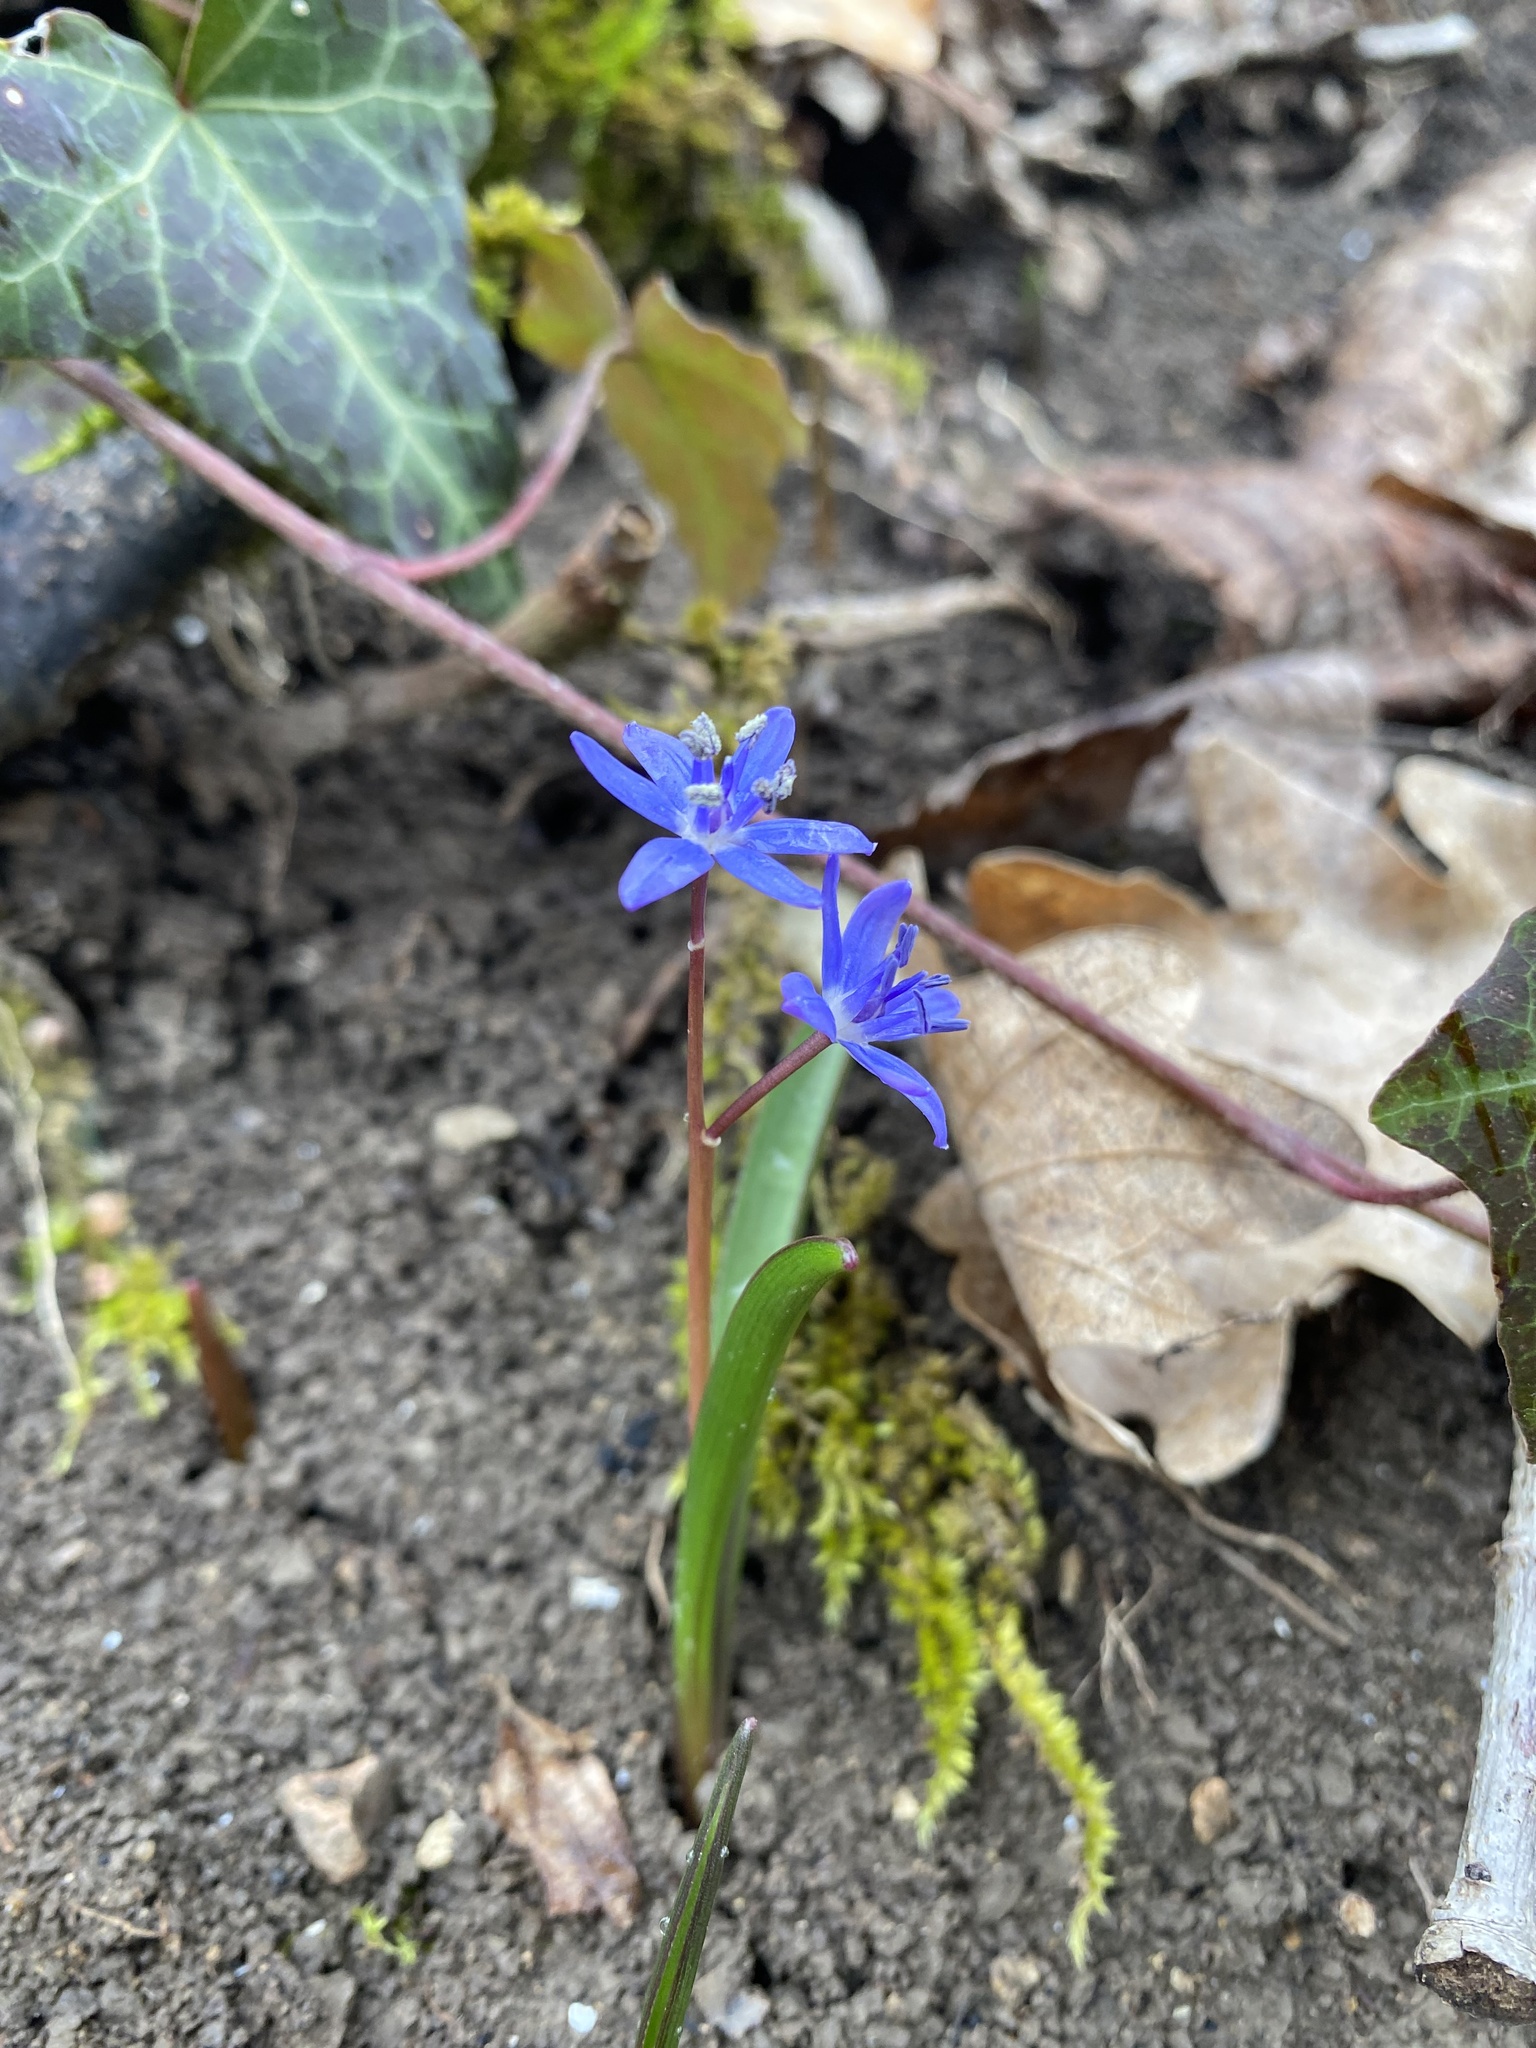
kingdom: Plantae
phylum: Tracheophyta
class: Liliopsida
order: Asparagales
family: Asparagaceae
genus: Scilla
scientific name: Scilla bifolia
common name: Alpine squill
